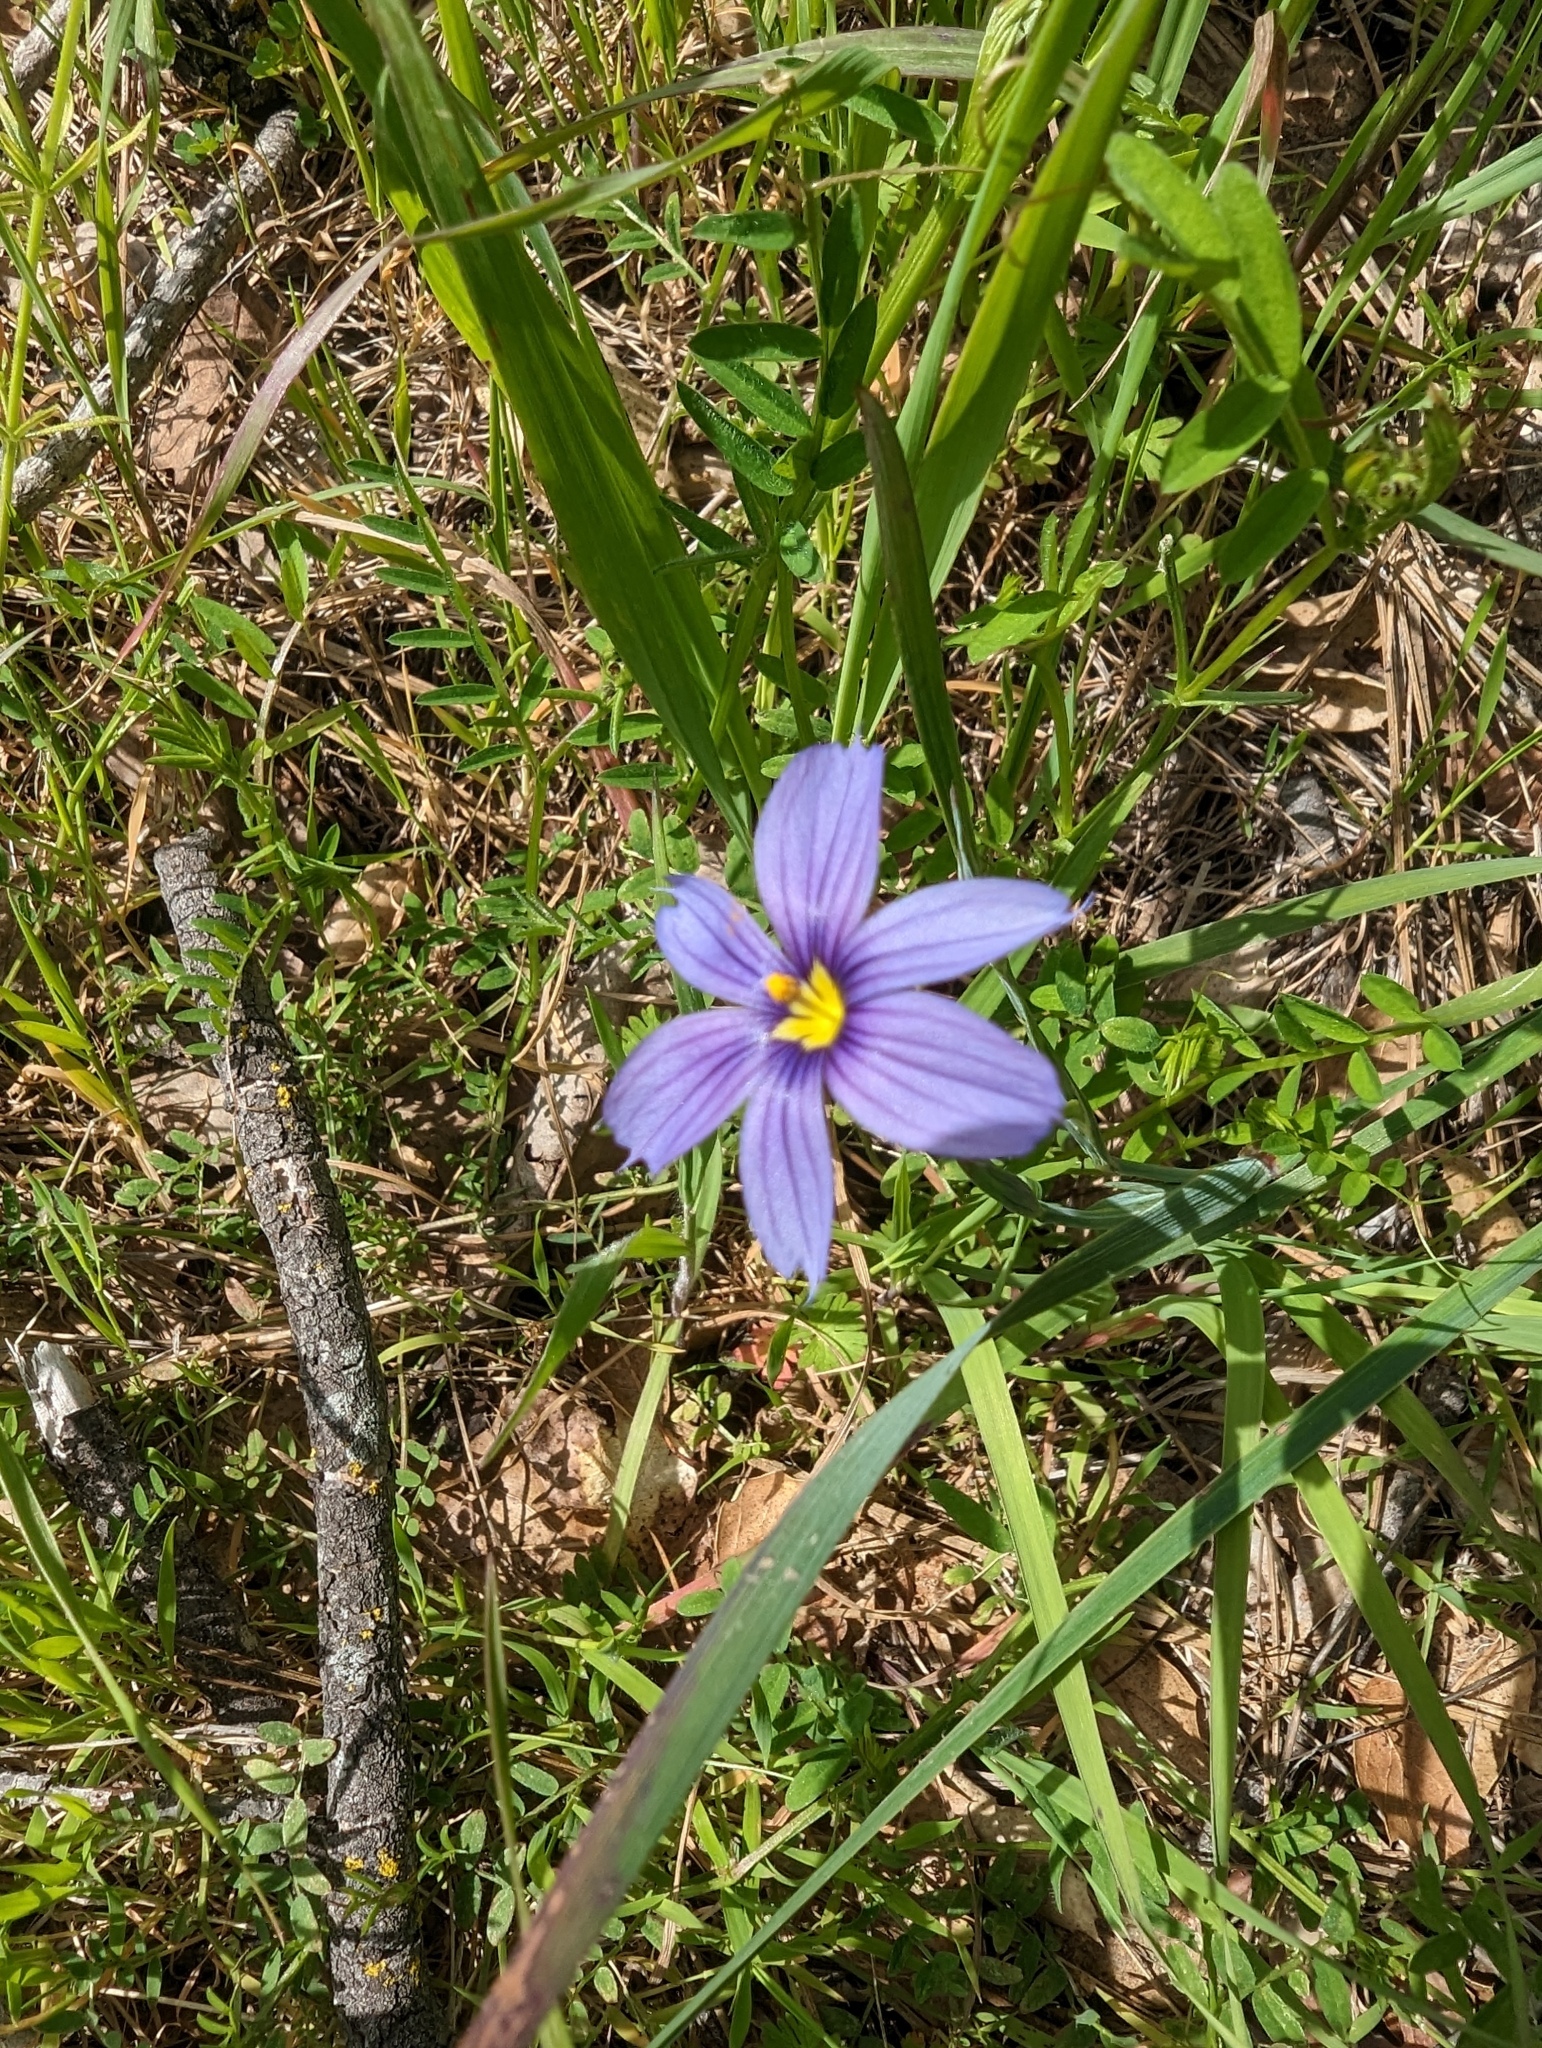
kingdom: Plantae
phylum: Tracheophyta
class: Liliopsida
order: Asparagales
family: Iridaceae
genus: Sisyrinchium
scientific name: Sisyrinchium bellum
